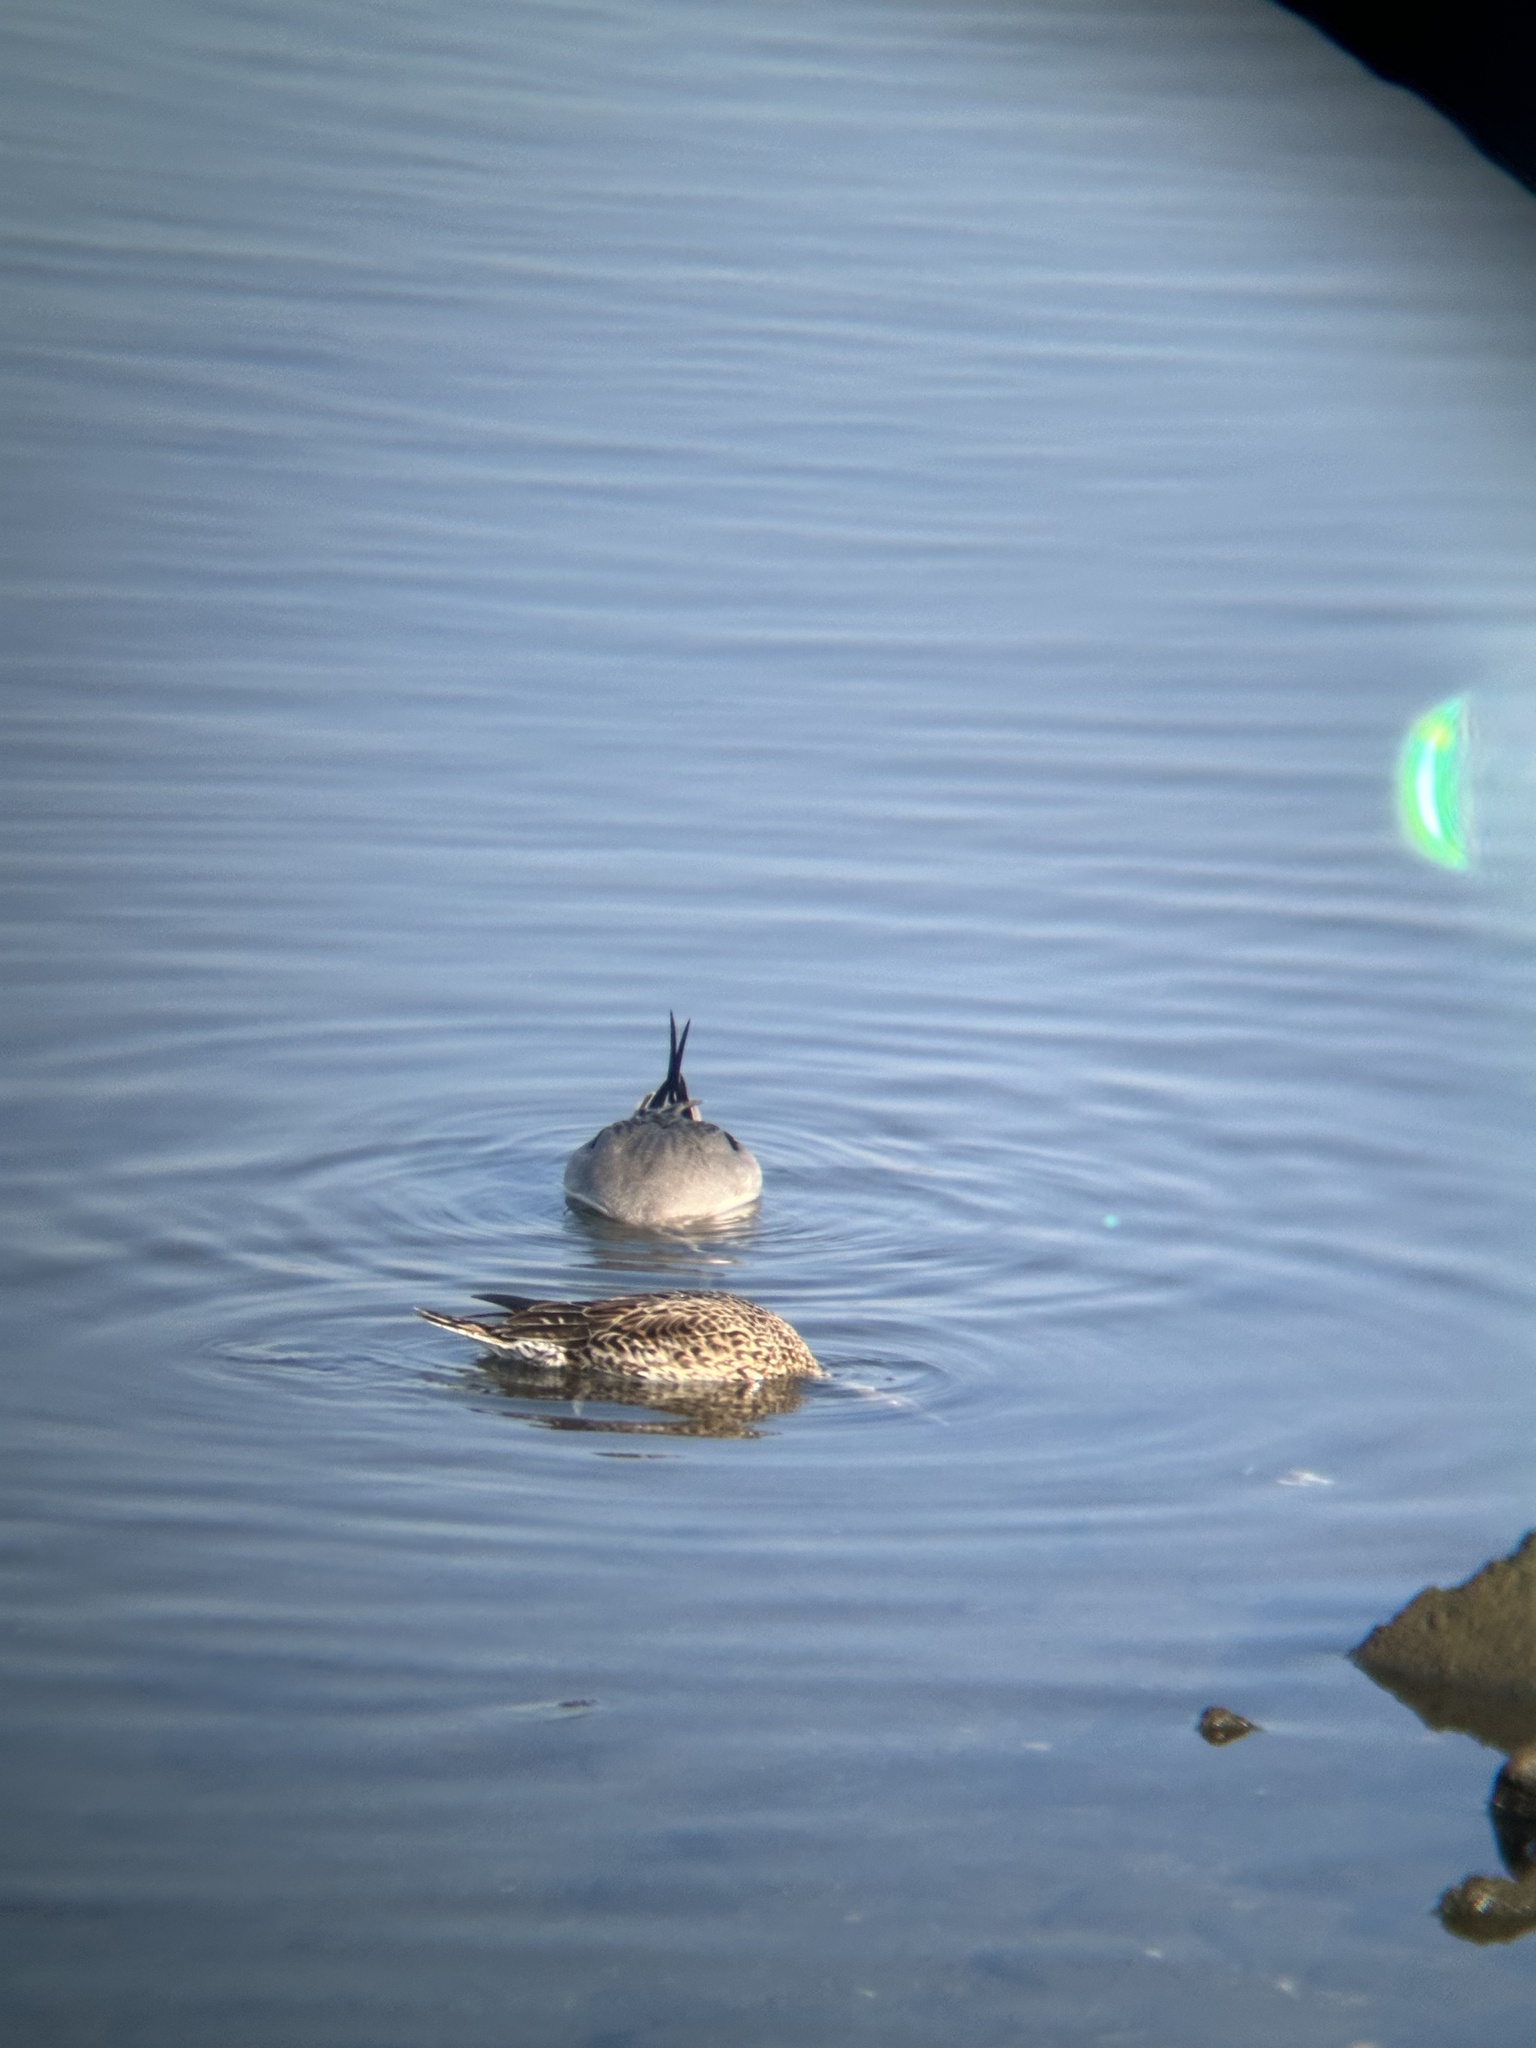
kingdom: Animalia
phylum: Chordata
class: Aves
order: Anseriformes
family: Anatidae
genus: Anas
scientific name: Anas acuta
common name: Northern pintail
